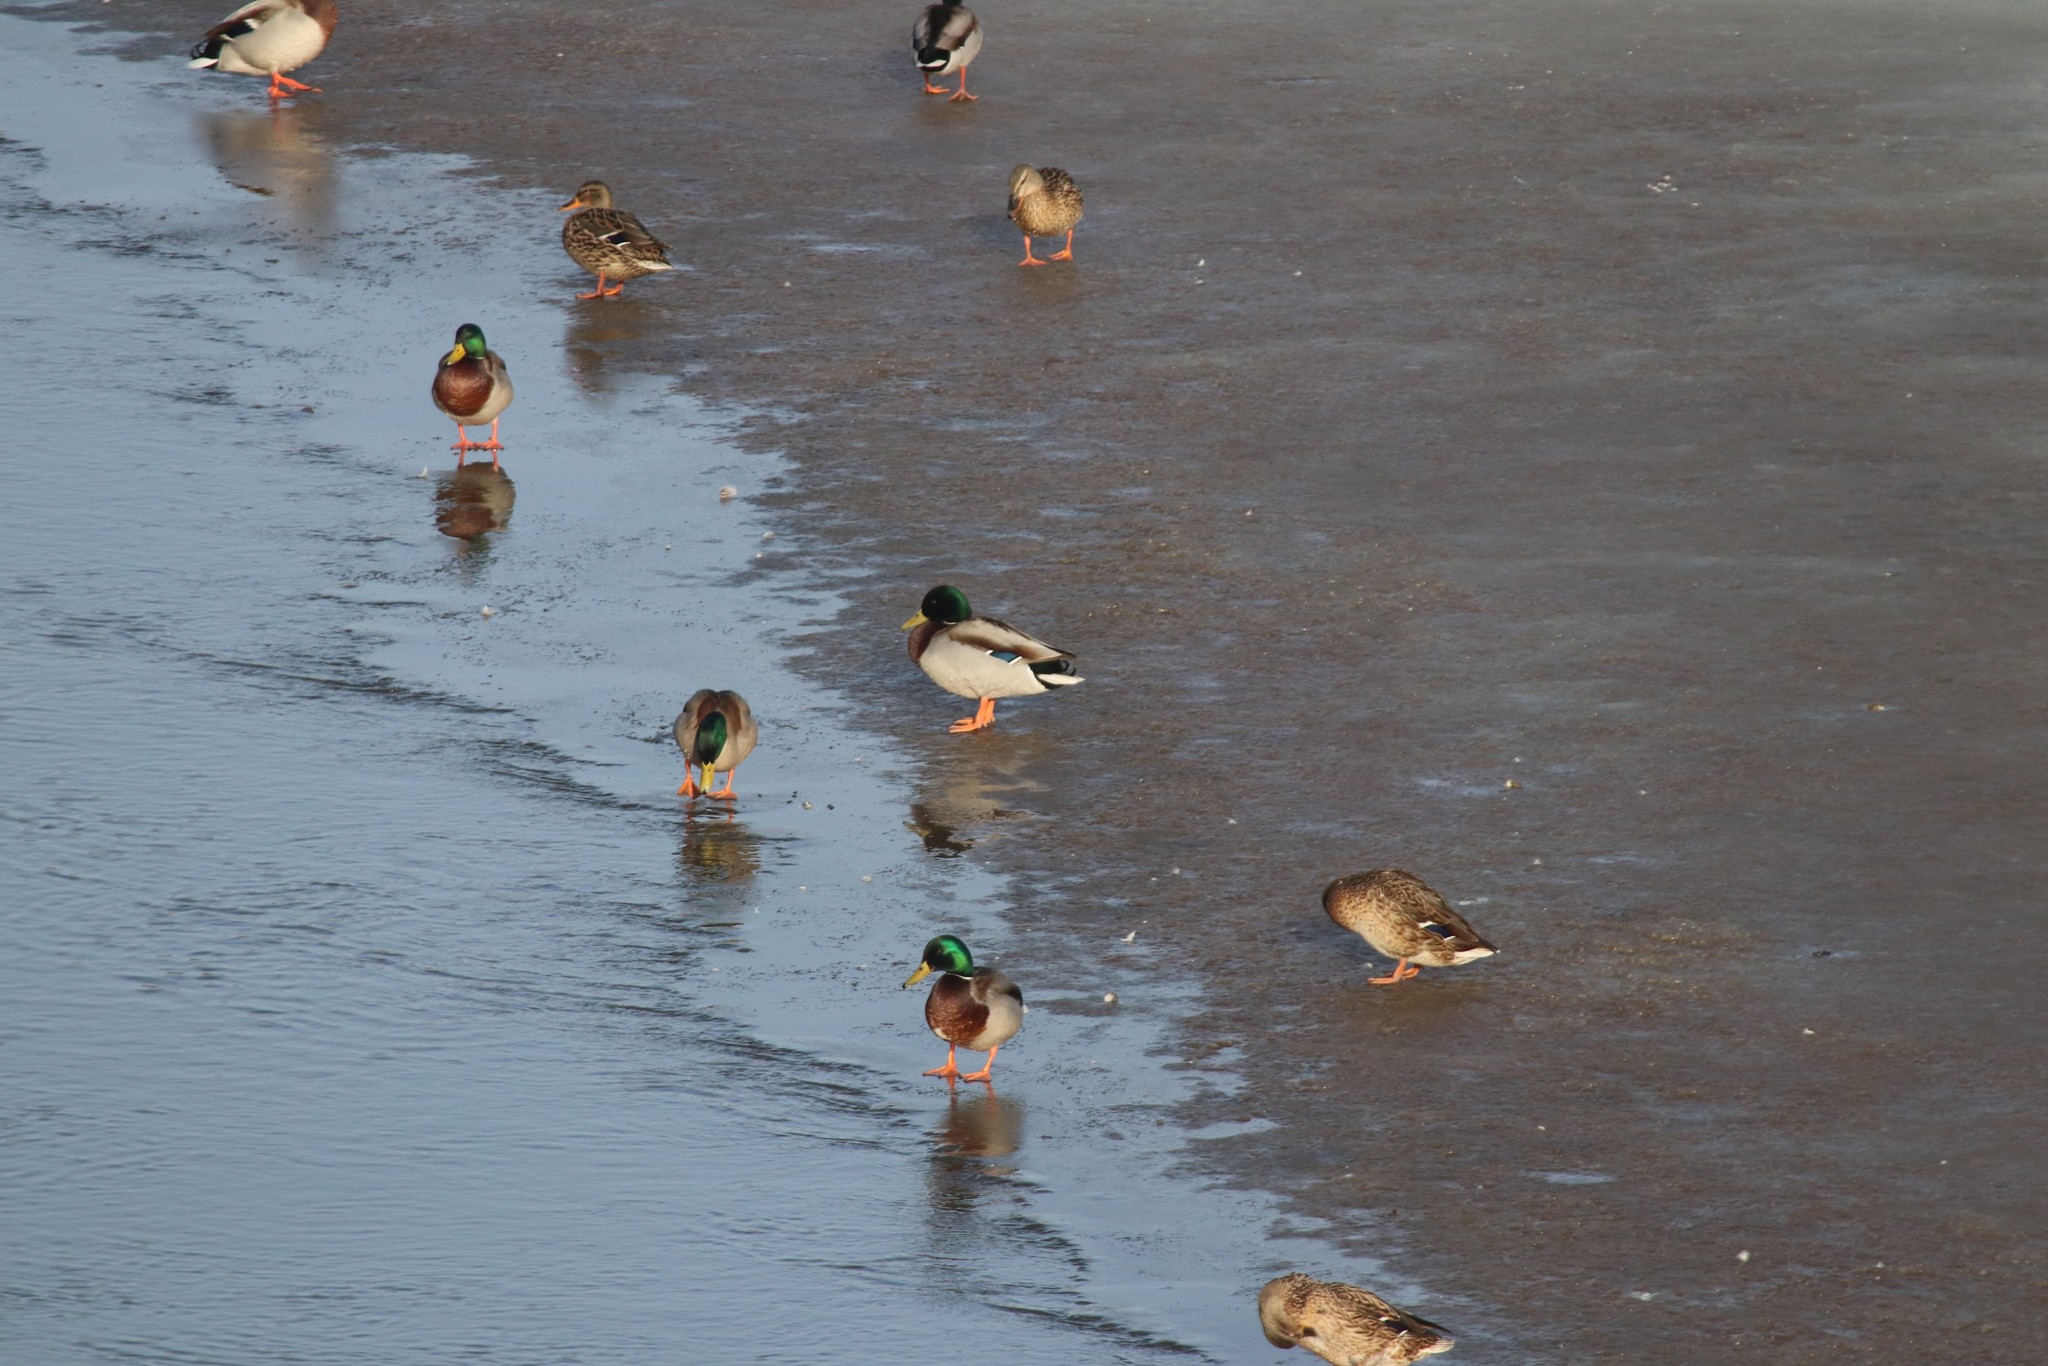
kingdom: Animalia
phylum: Chordata
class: Aves
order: Anseriformes
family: Anatidae
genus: Anas
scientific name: Anas platyrhynchos
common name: Mallard
